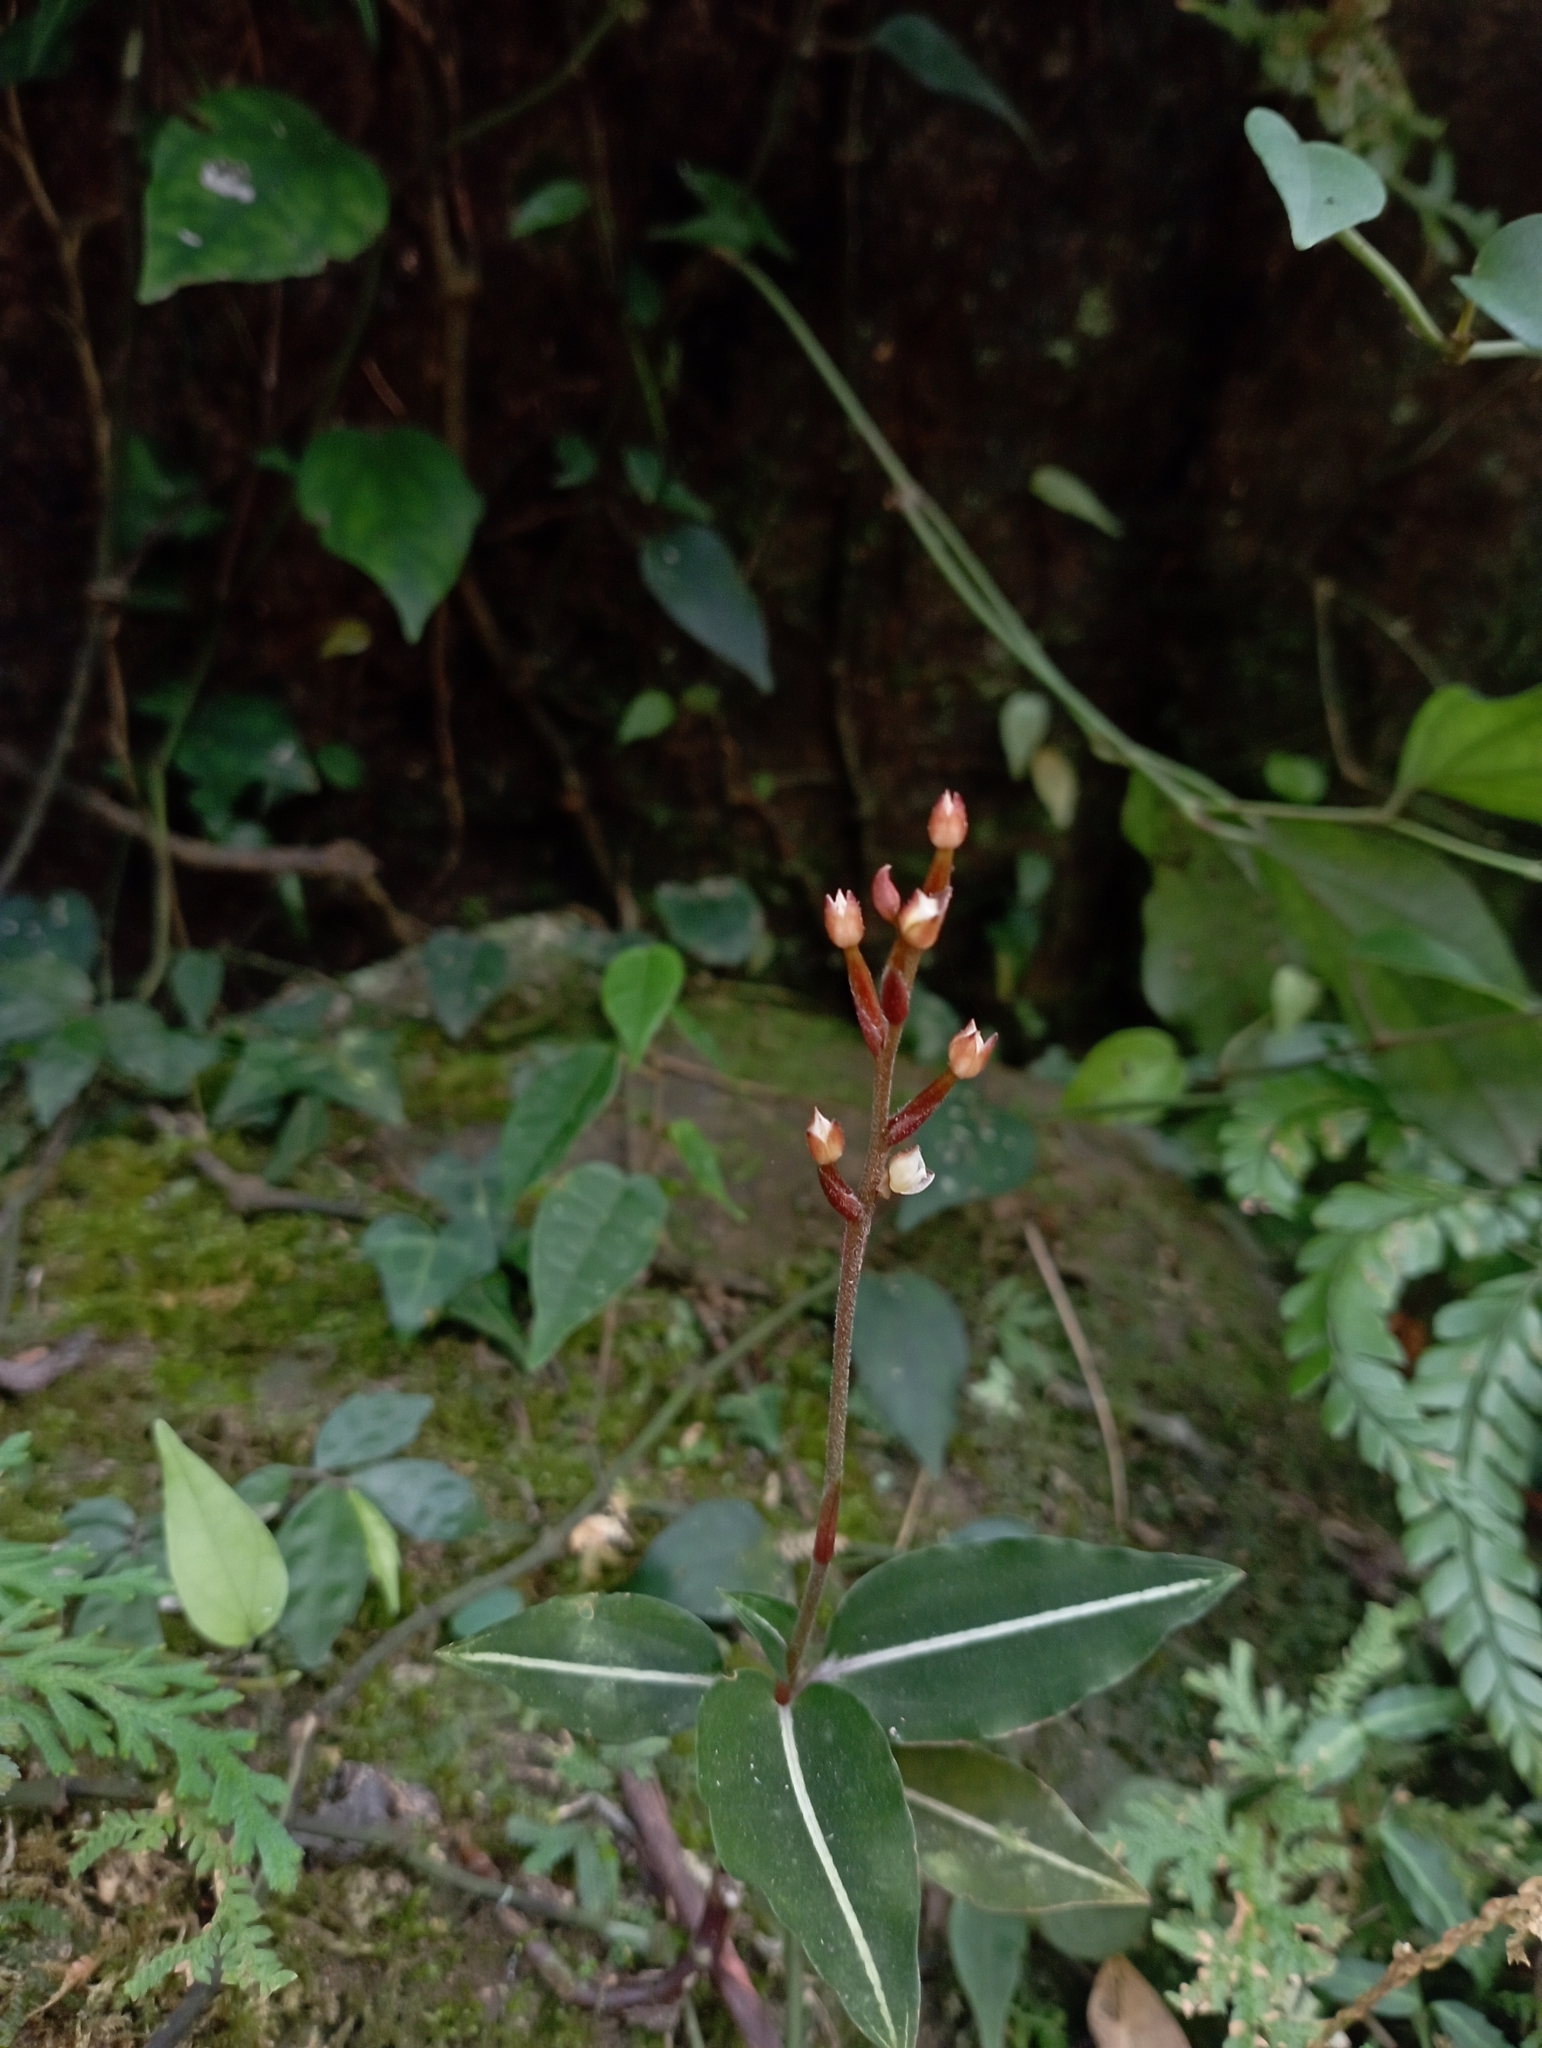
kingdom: Plantae
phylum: Tracheophyta
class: Liliopsida
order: Asparagales
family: Orchidaceae
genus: Rhomboda
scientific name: Rhomboda yakusimensis
